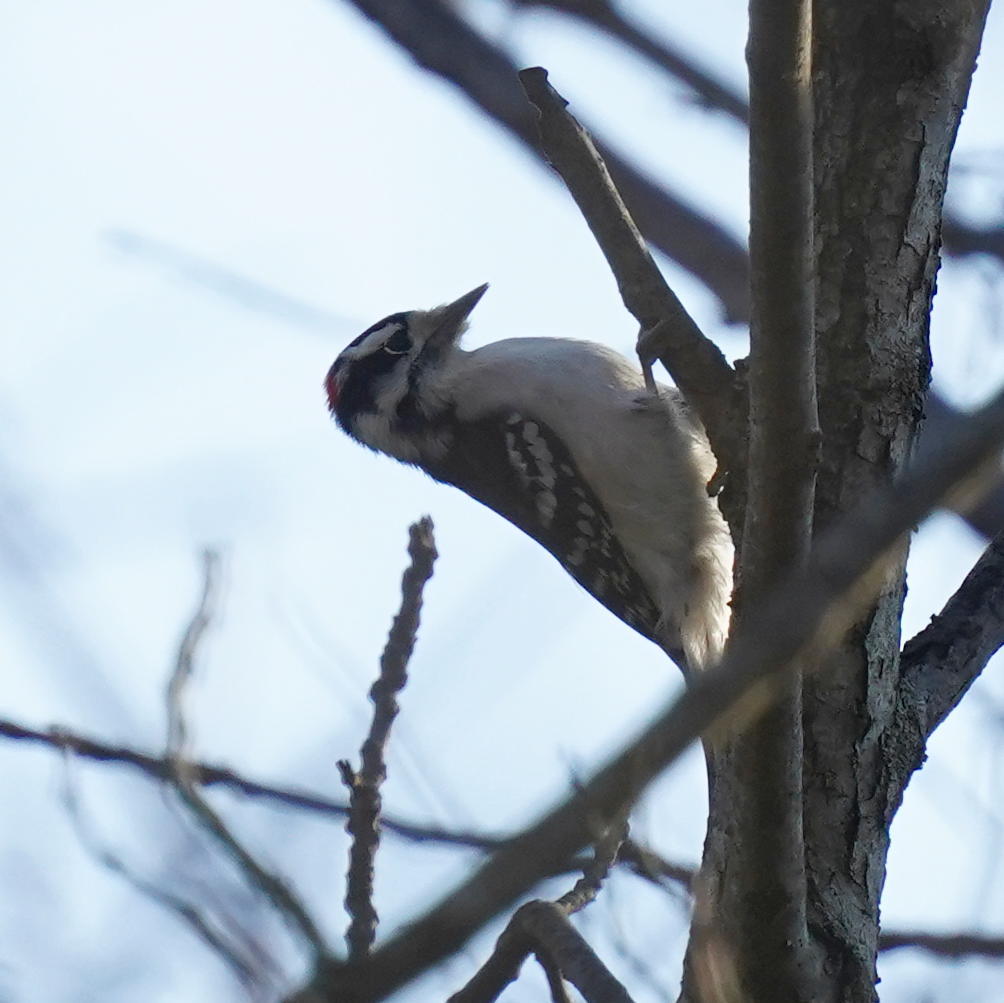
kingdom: Animalia
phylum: Chordata
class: Aves
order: Piciformes
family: Picidae
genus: Dryobates
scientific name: Dryobates pubescens
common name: Downy woodpecker
